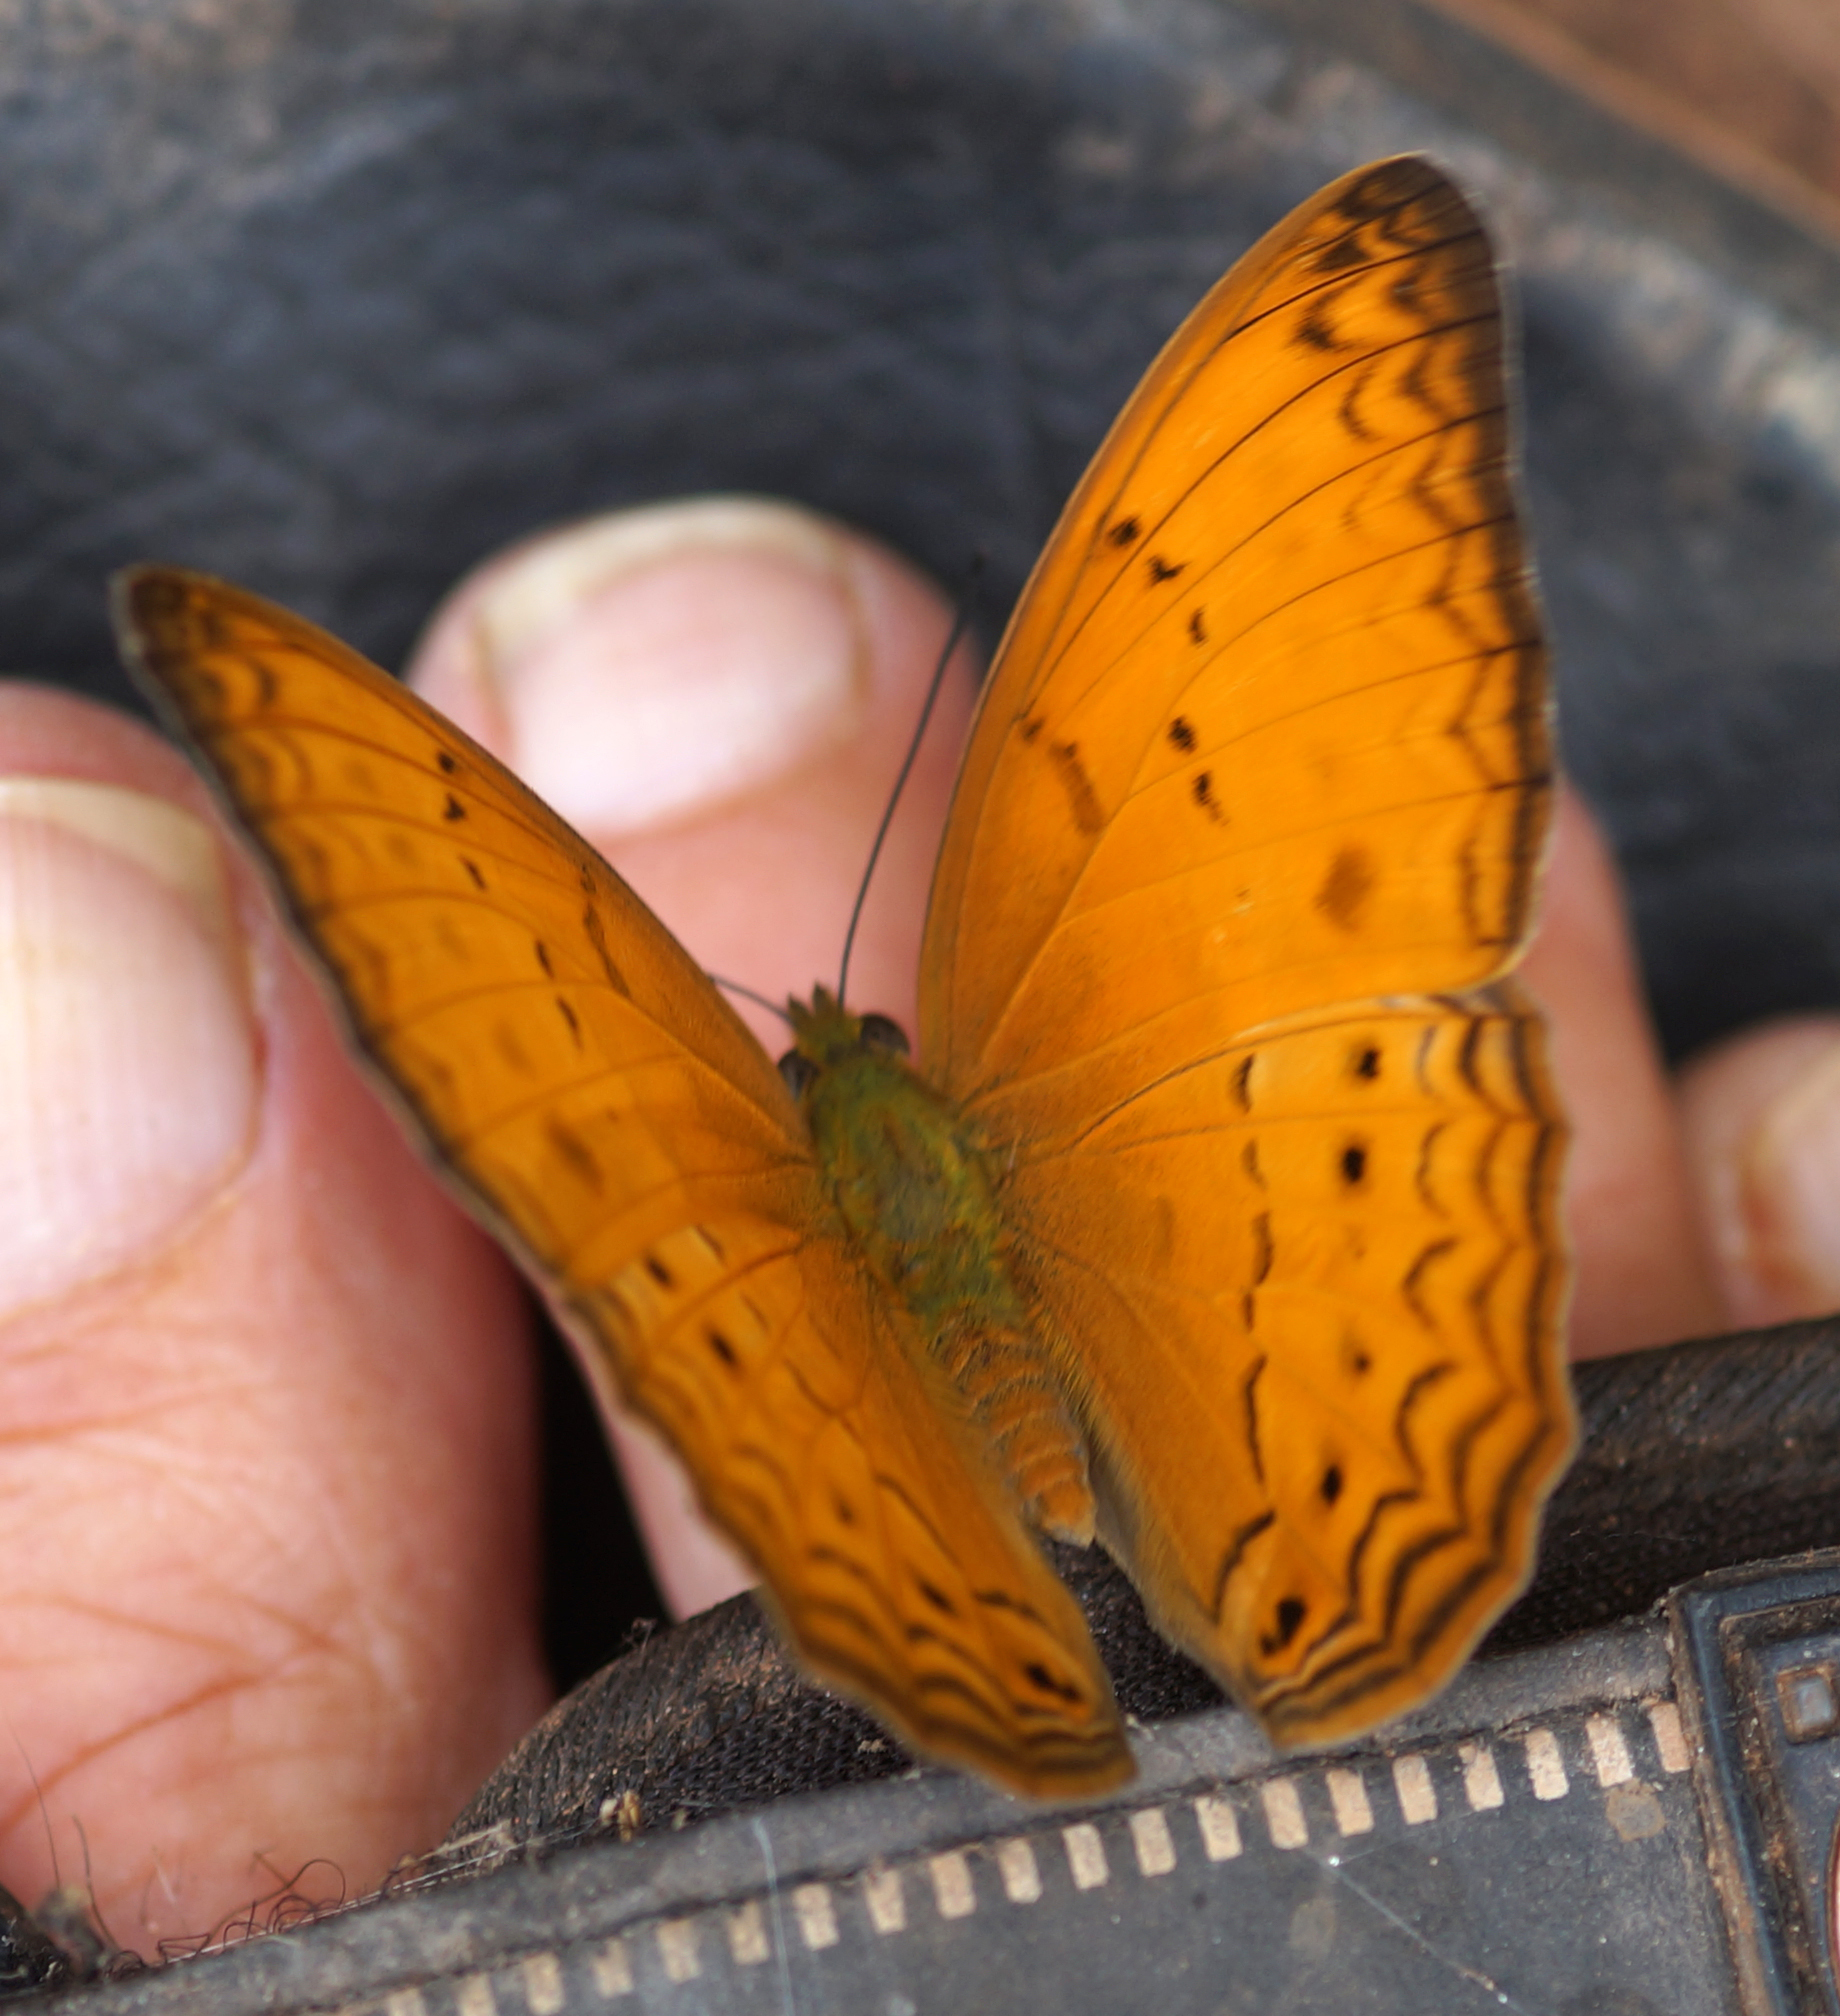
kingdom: Animalia
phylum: Arthropoda
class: Insecta
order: Lepidoptera
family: Nymphalidae
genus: Cirrochroa
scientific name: Cirrochroa tyche
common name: Common yeoman
